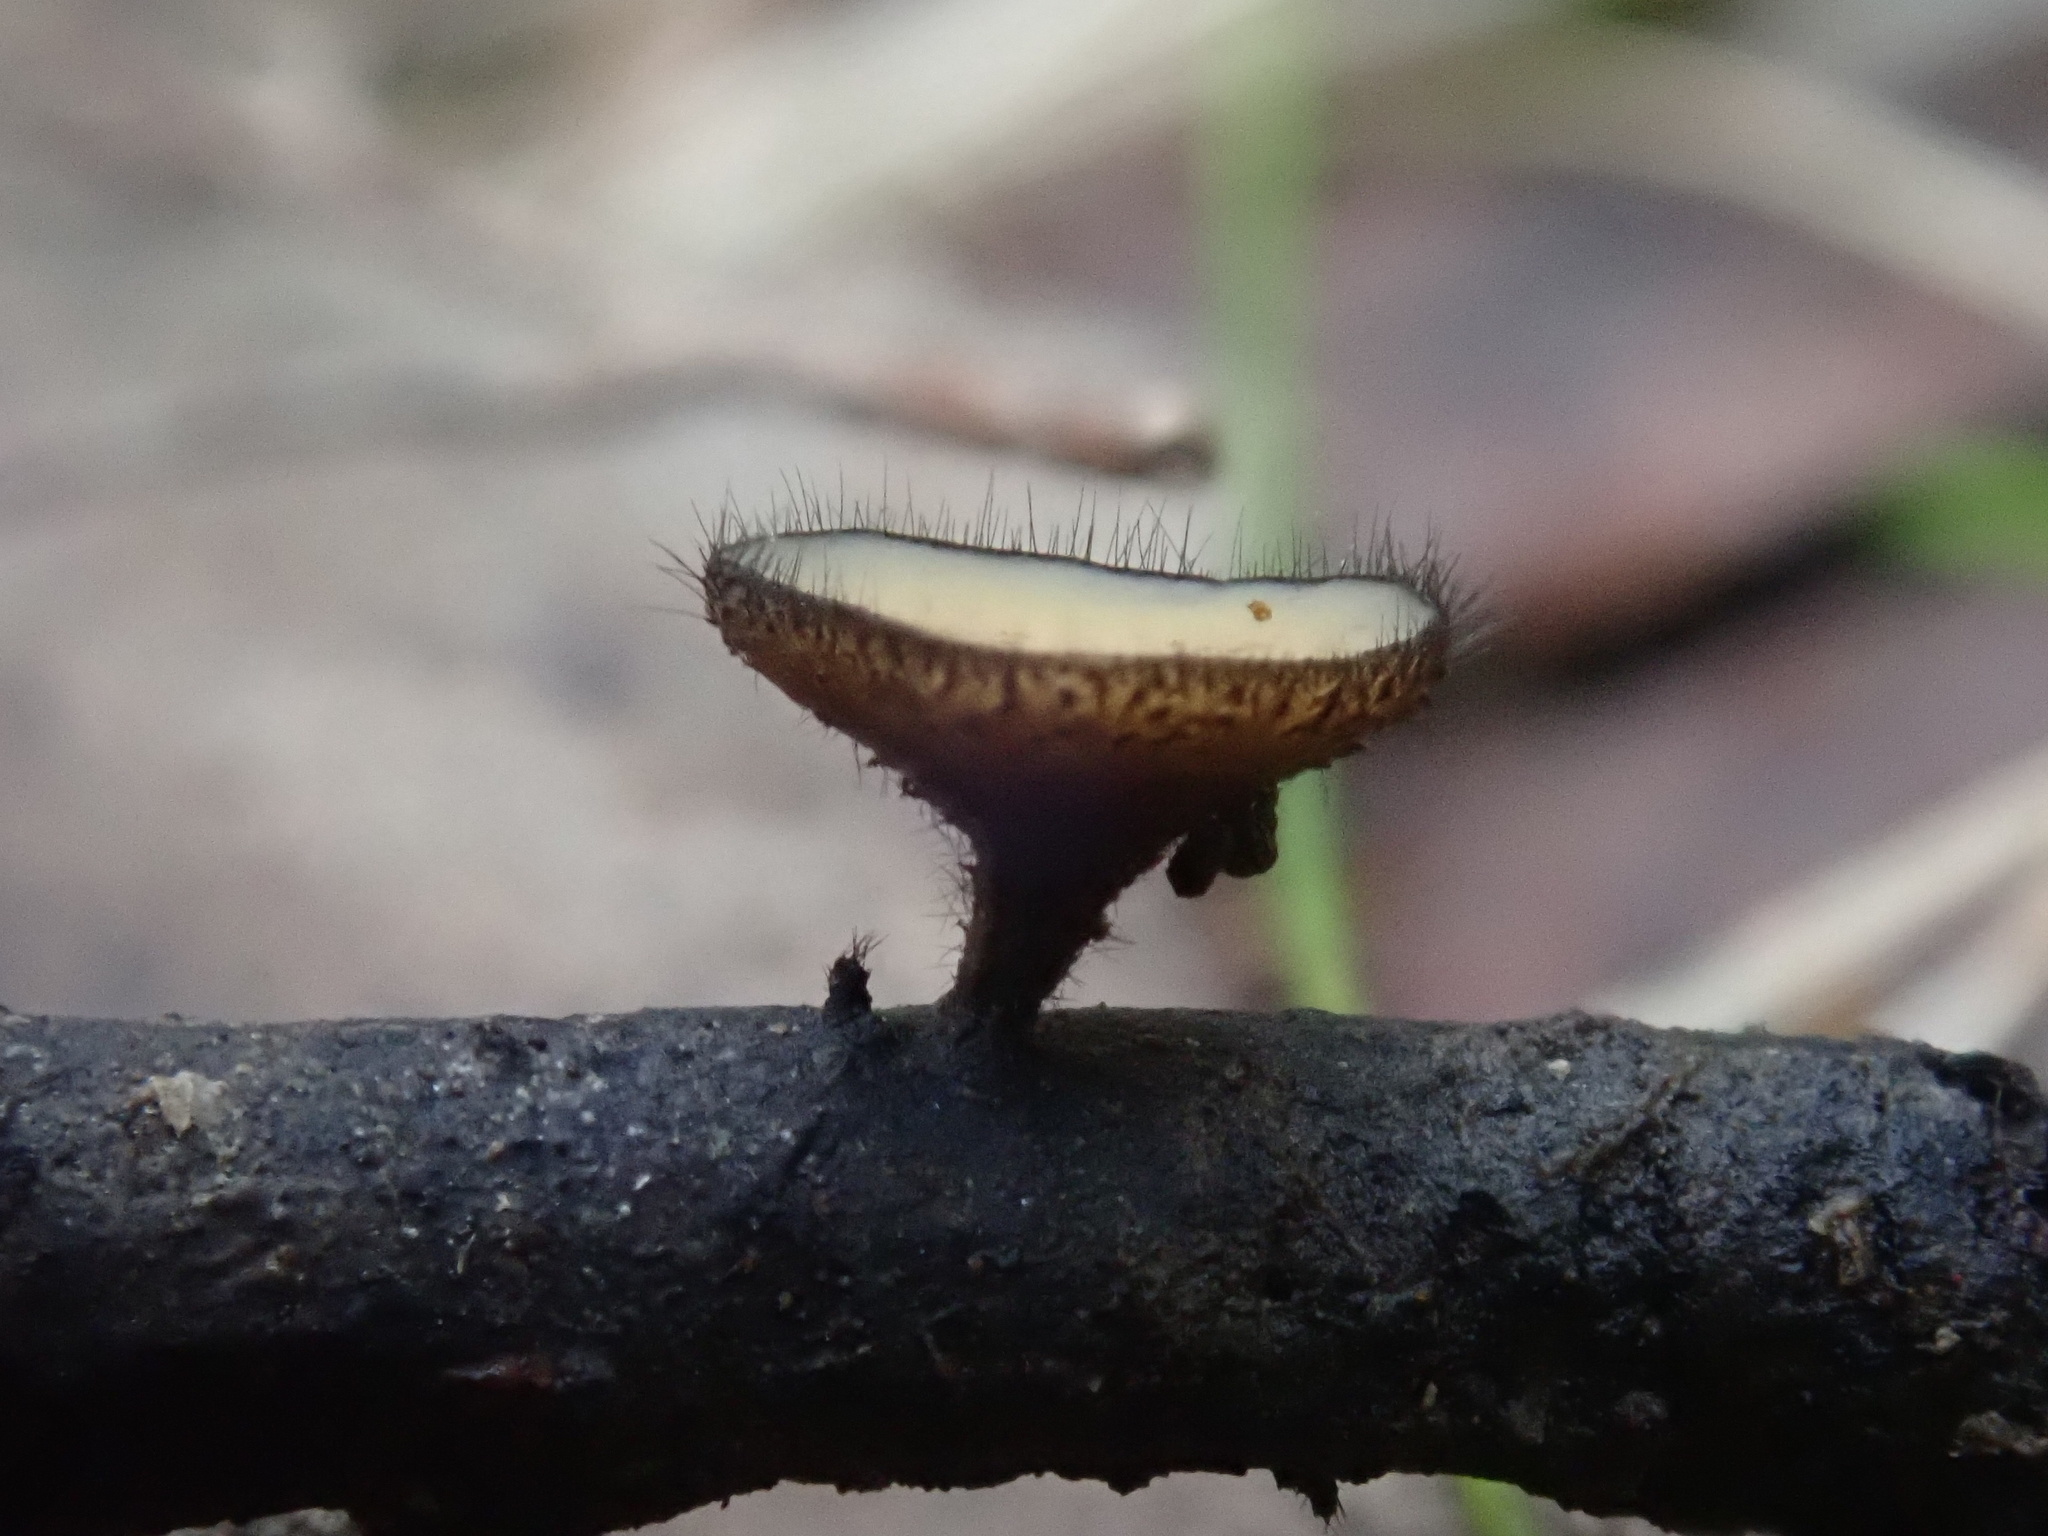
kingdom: Fungi
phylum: Ascomycota
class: Leotiomycetes
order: Helotiales
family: Helotiaceae
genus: Hymenotorrendiella
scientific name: Hymenotorrendiella clelandii
